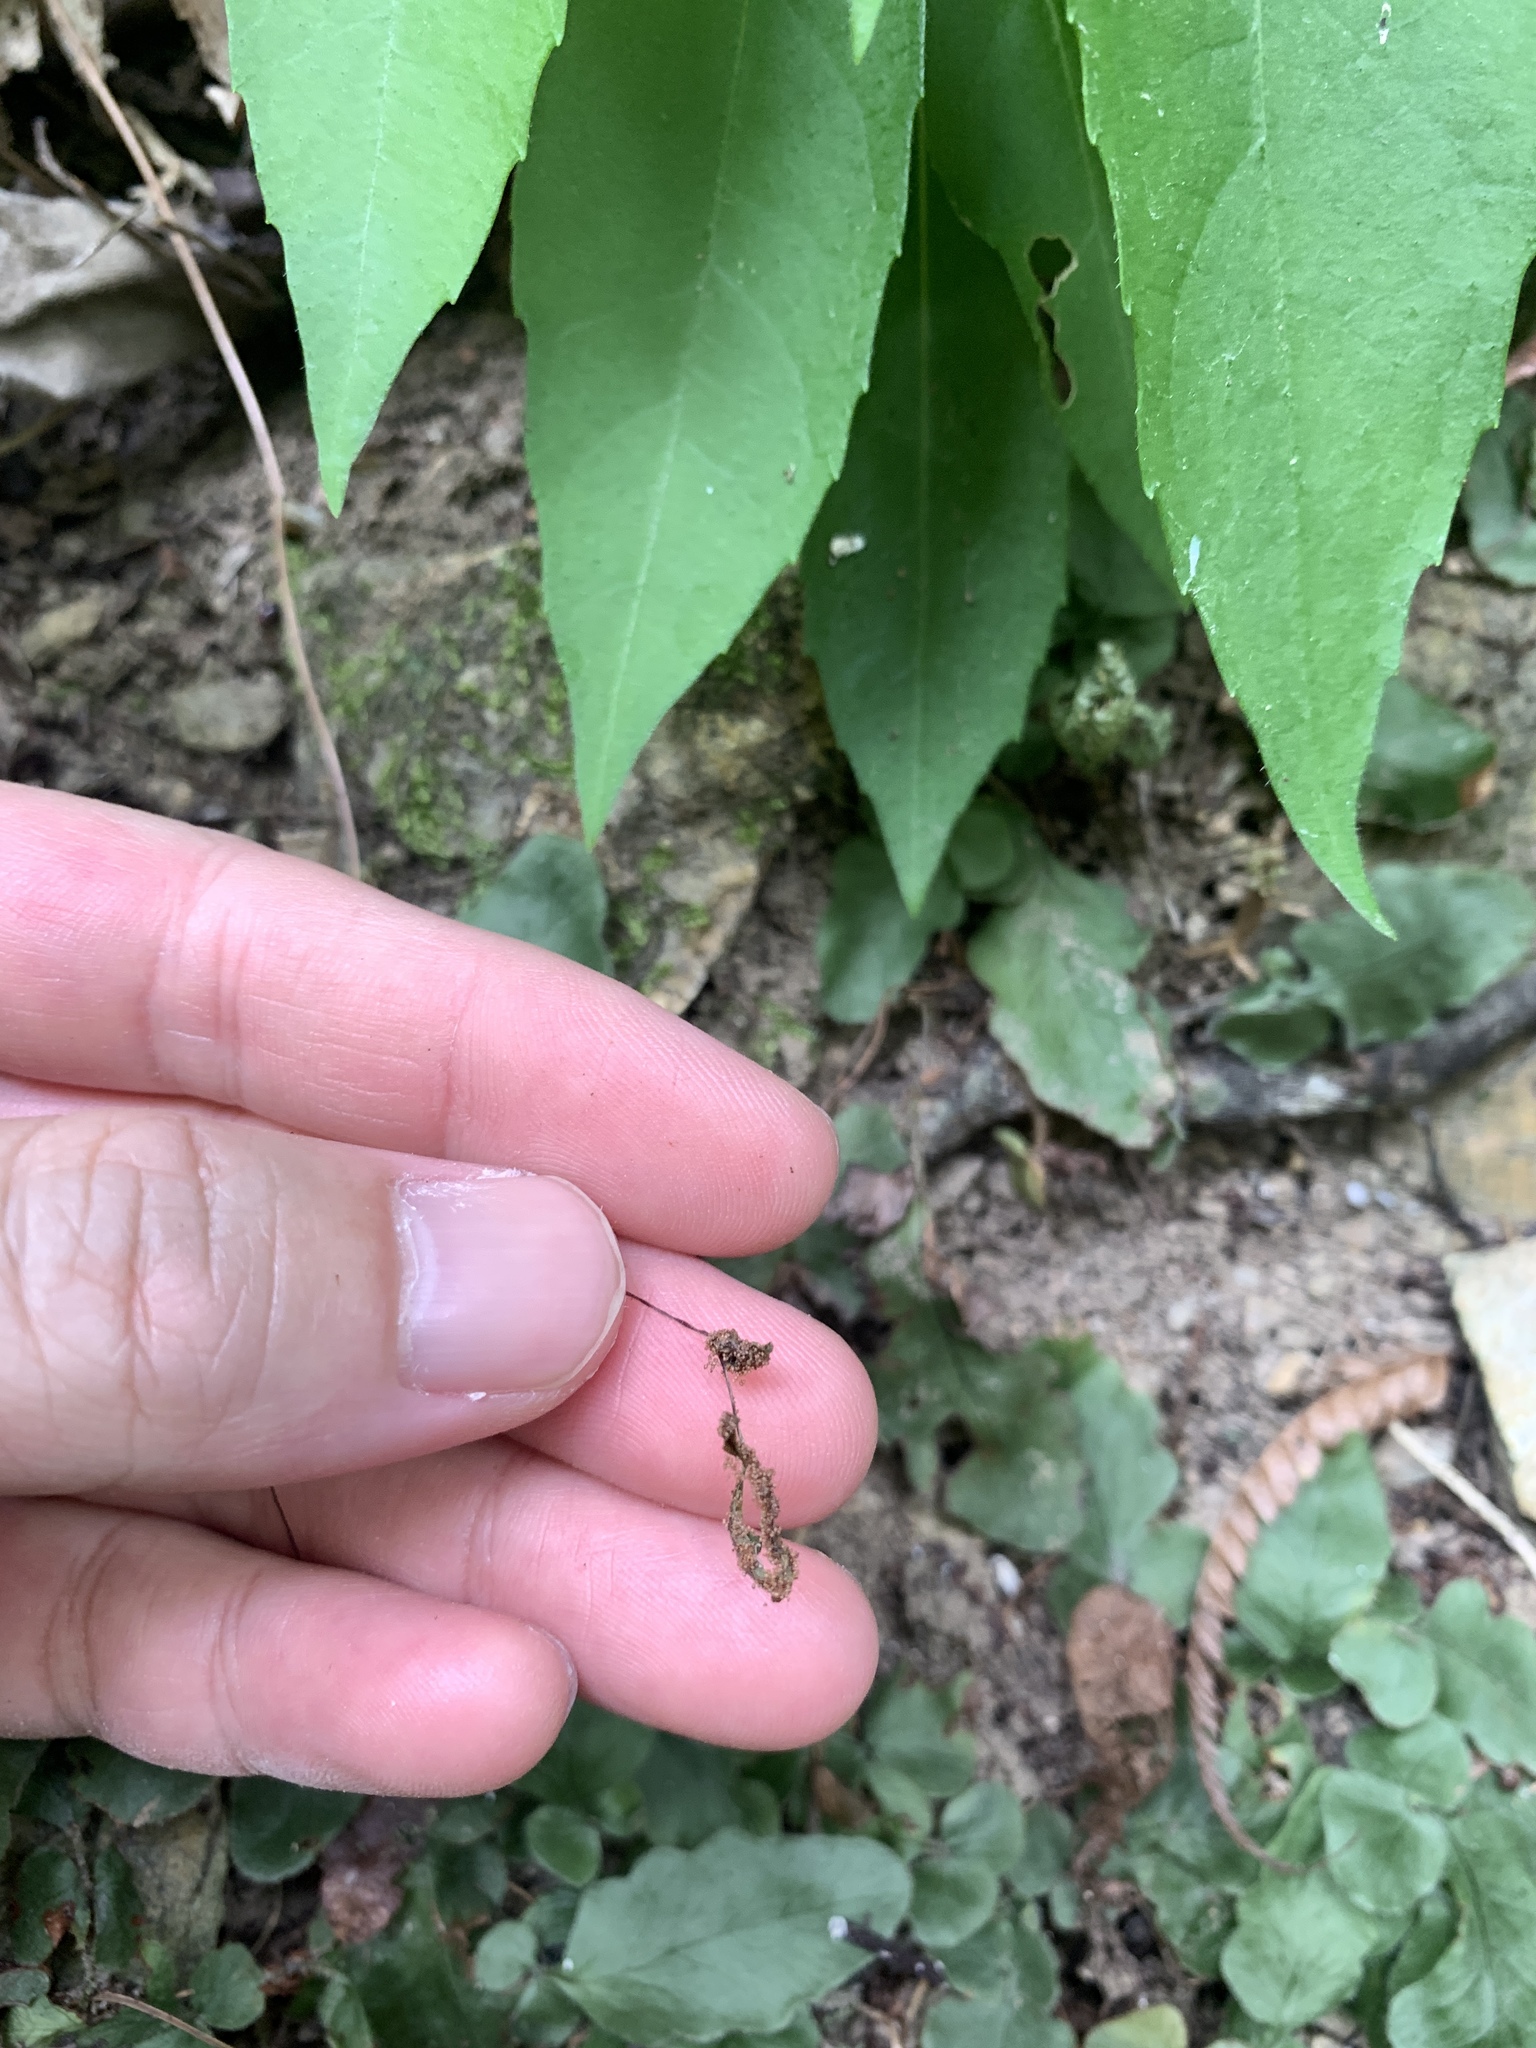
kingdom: Plantae
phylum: Tracheophyta
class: Polypodiopsida
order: Polypodiales
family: Tectariaceae
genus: Tectaria
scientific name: Tectaria zeilanica
